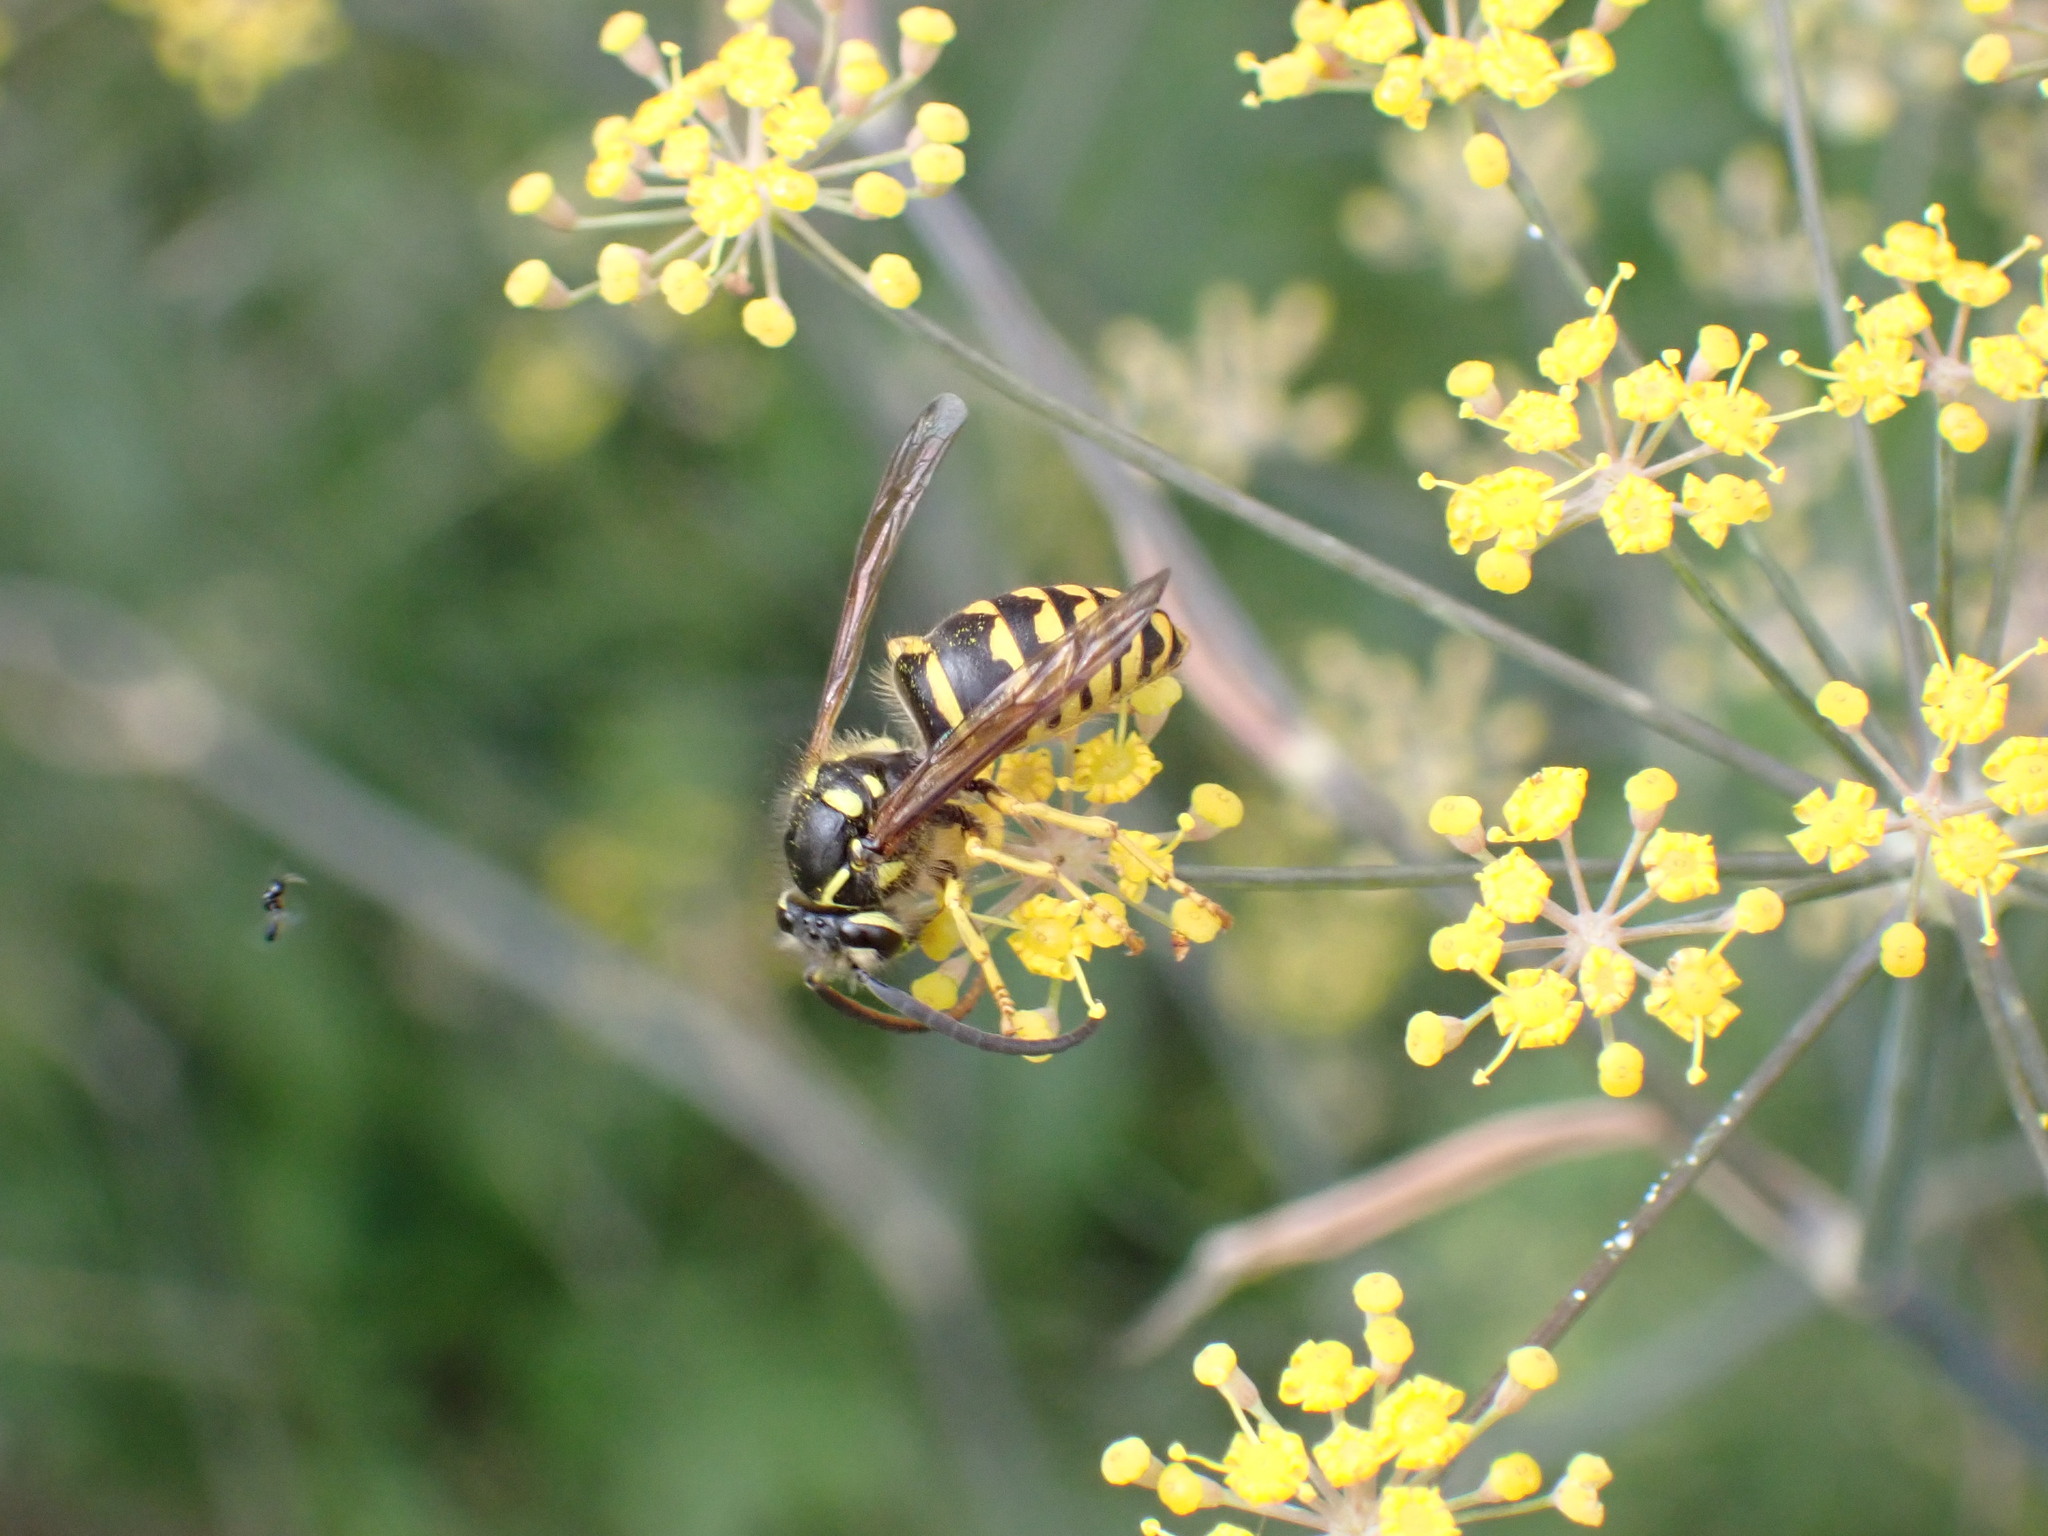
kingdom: Animalia
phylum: Arthropoda
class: Insecta
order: Hymenoptera
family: Vespidae
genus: Dolichovespula
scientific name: Dolichovespula arenaria
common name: Aerial yellowjacket
